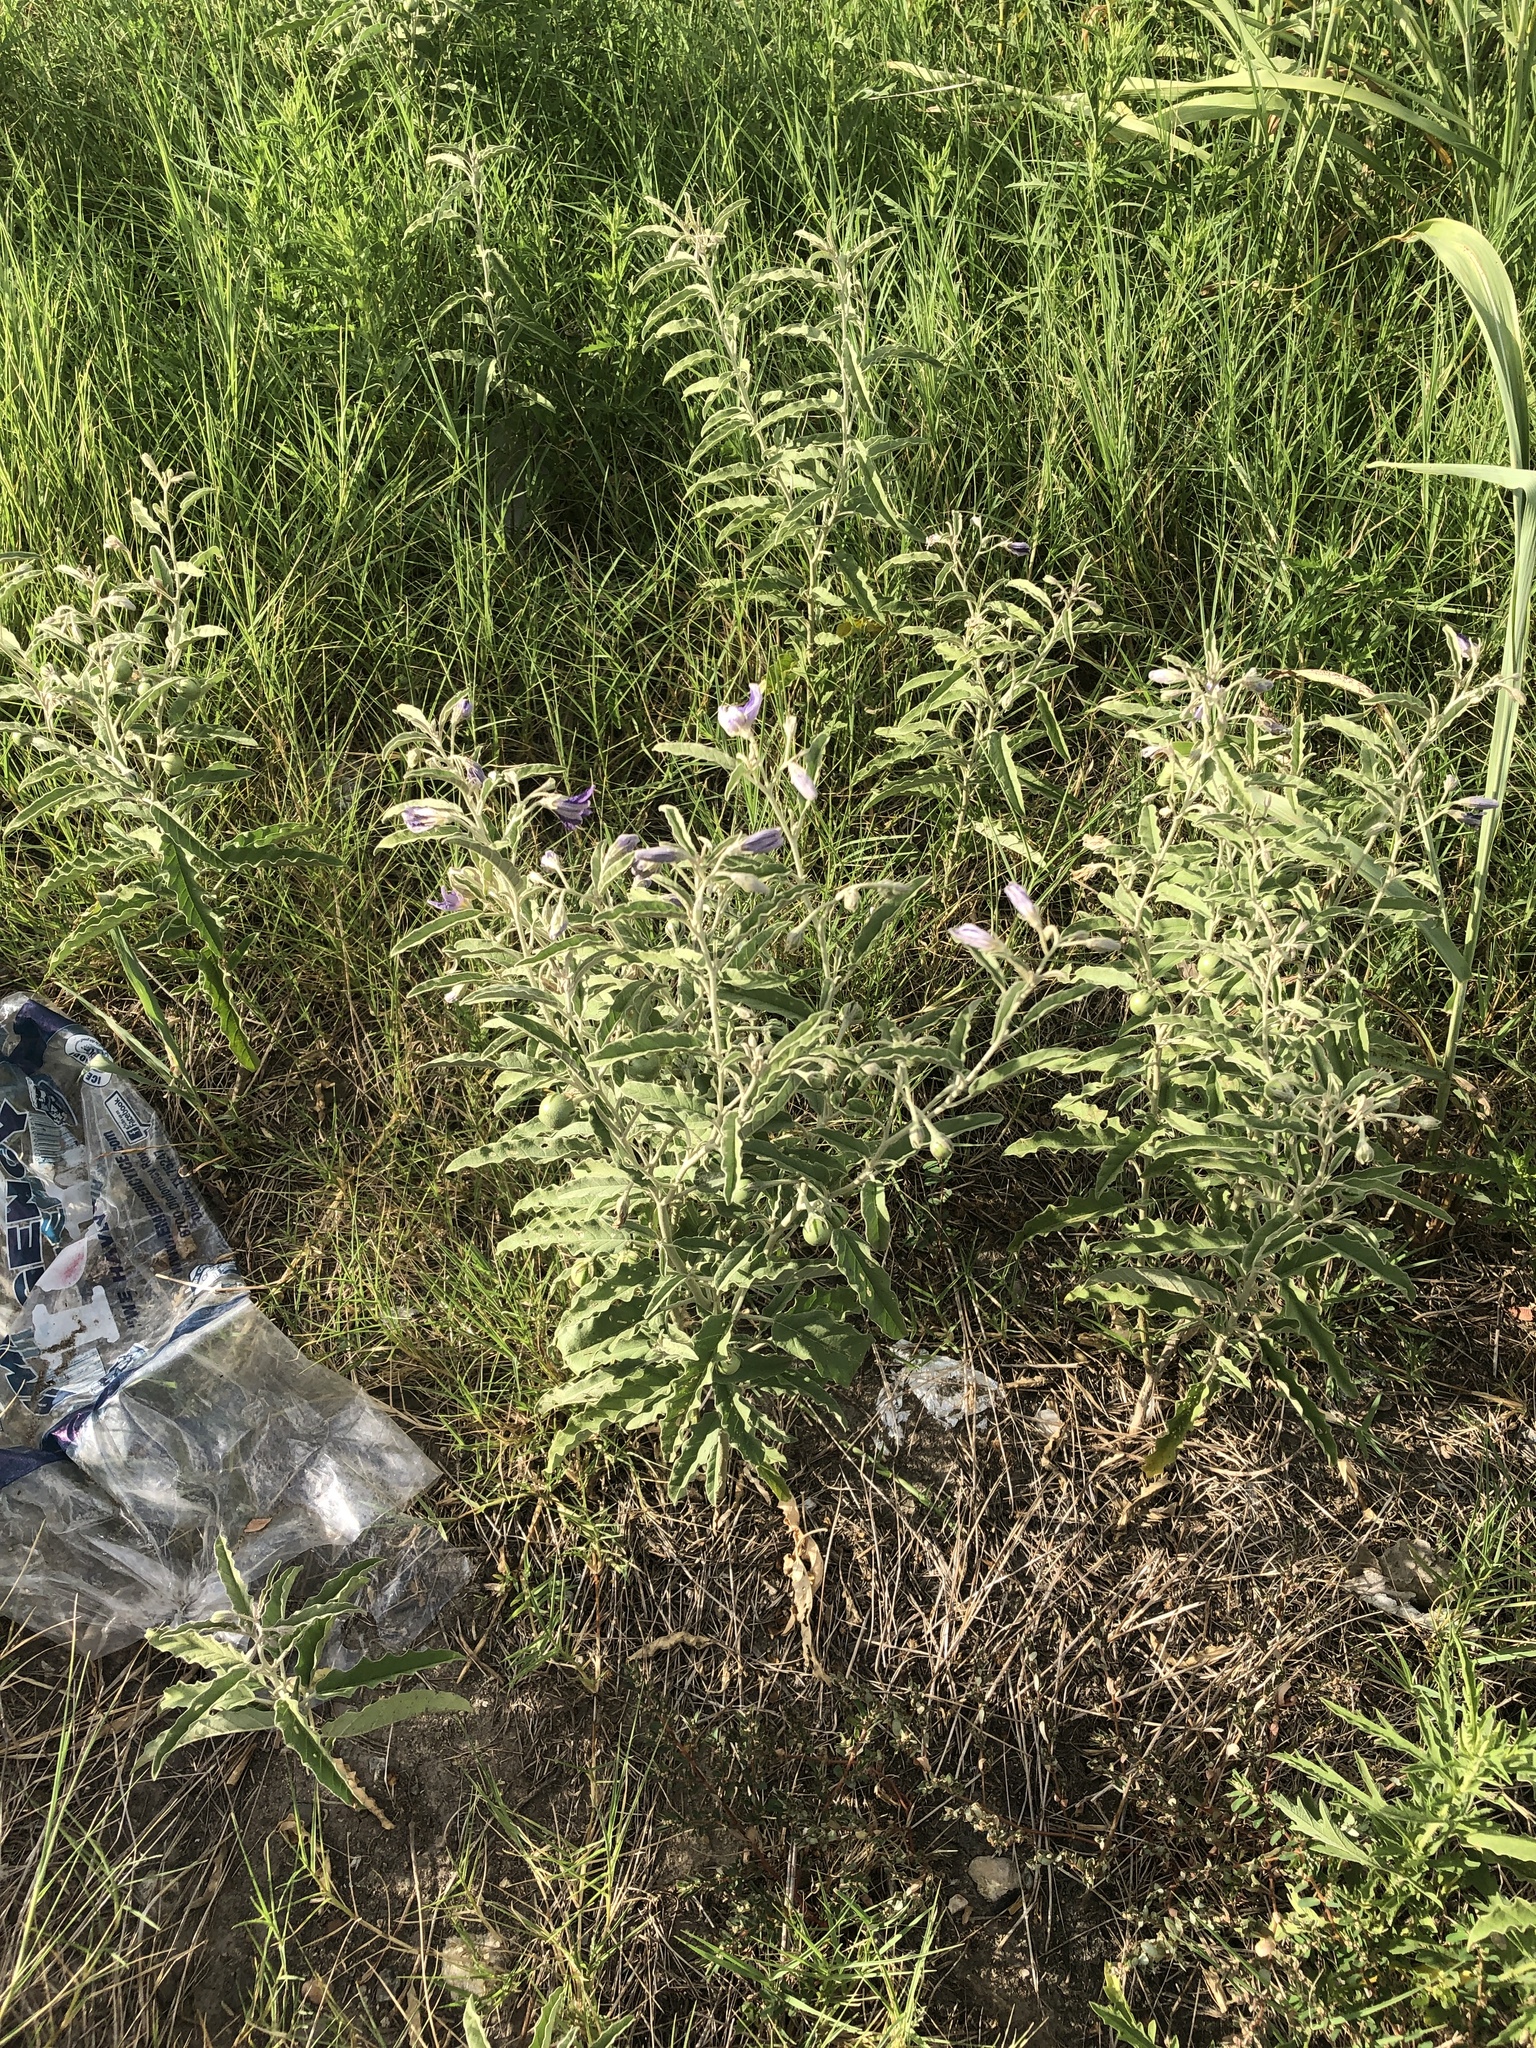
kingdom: Plantae
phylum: Tracheophyta
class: Magnoliopsida
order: Solanales
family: Solanaceae
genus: Solanum
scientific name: Solanum elaeagnifolium
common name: Silverleaf nightshade
